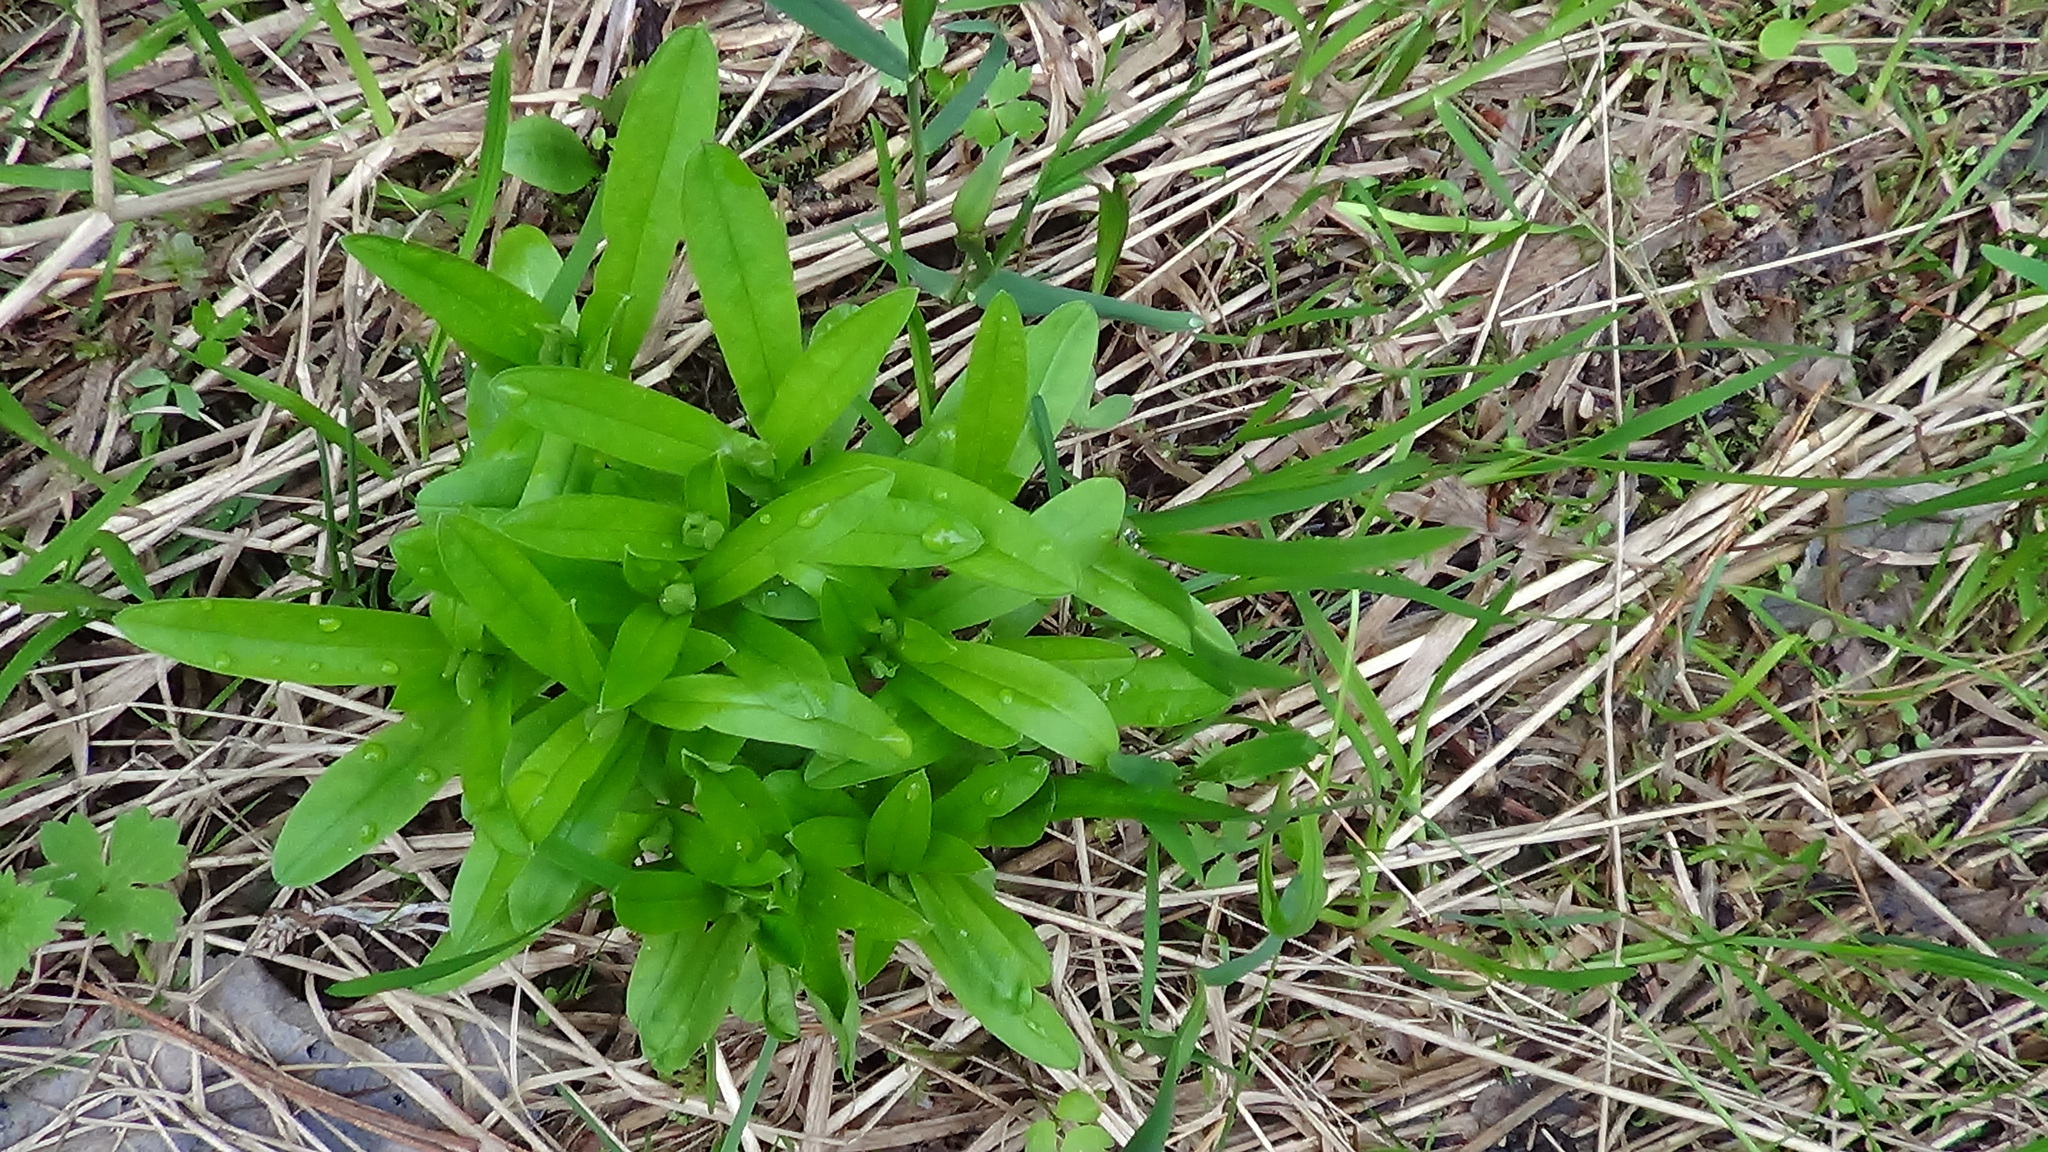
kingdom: Plantae
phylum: Tracheophyta
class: Magnoliopsida
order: Boraginales
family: Boraginaceae
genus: Myosotis
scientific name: Myosotis scorpioides
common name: Water forget-me-not
